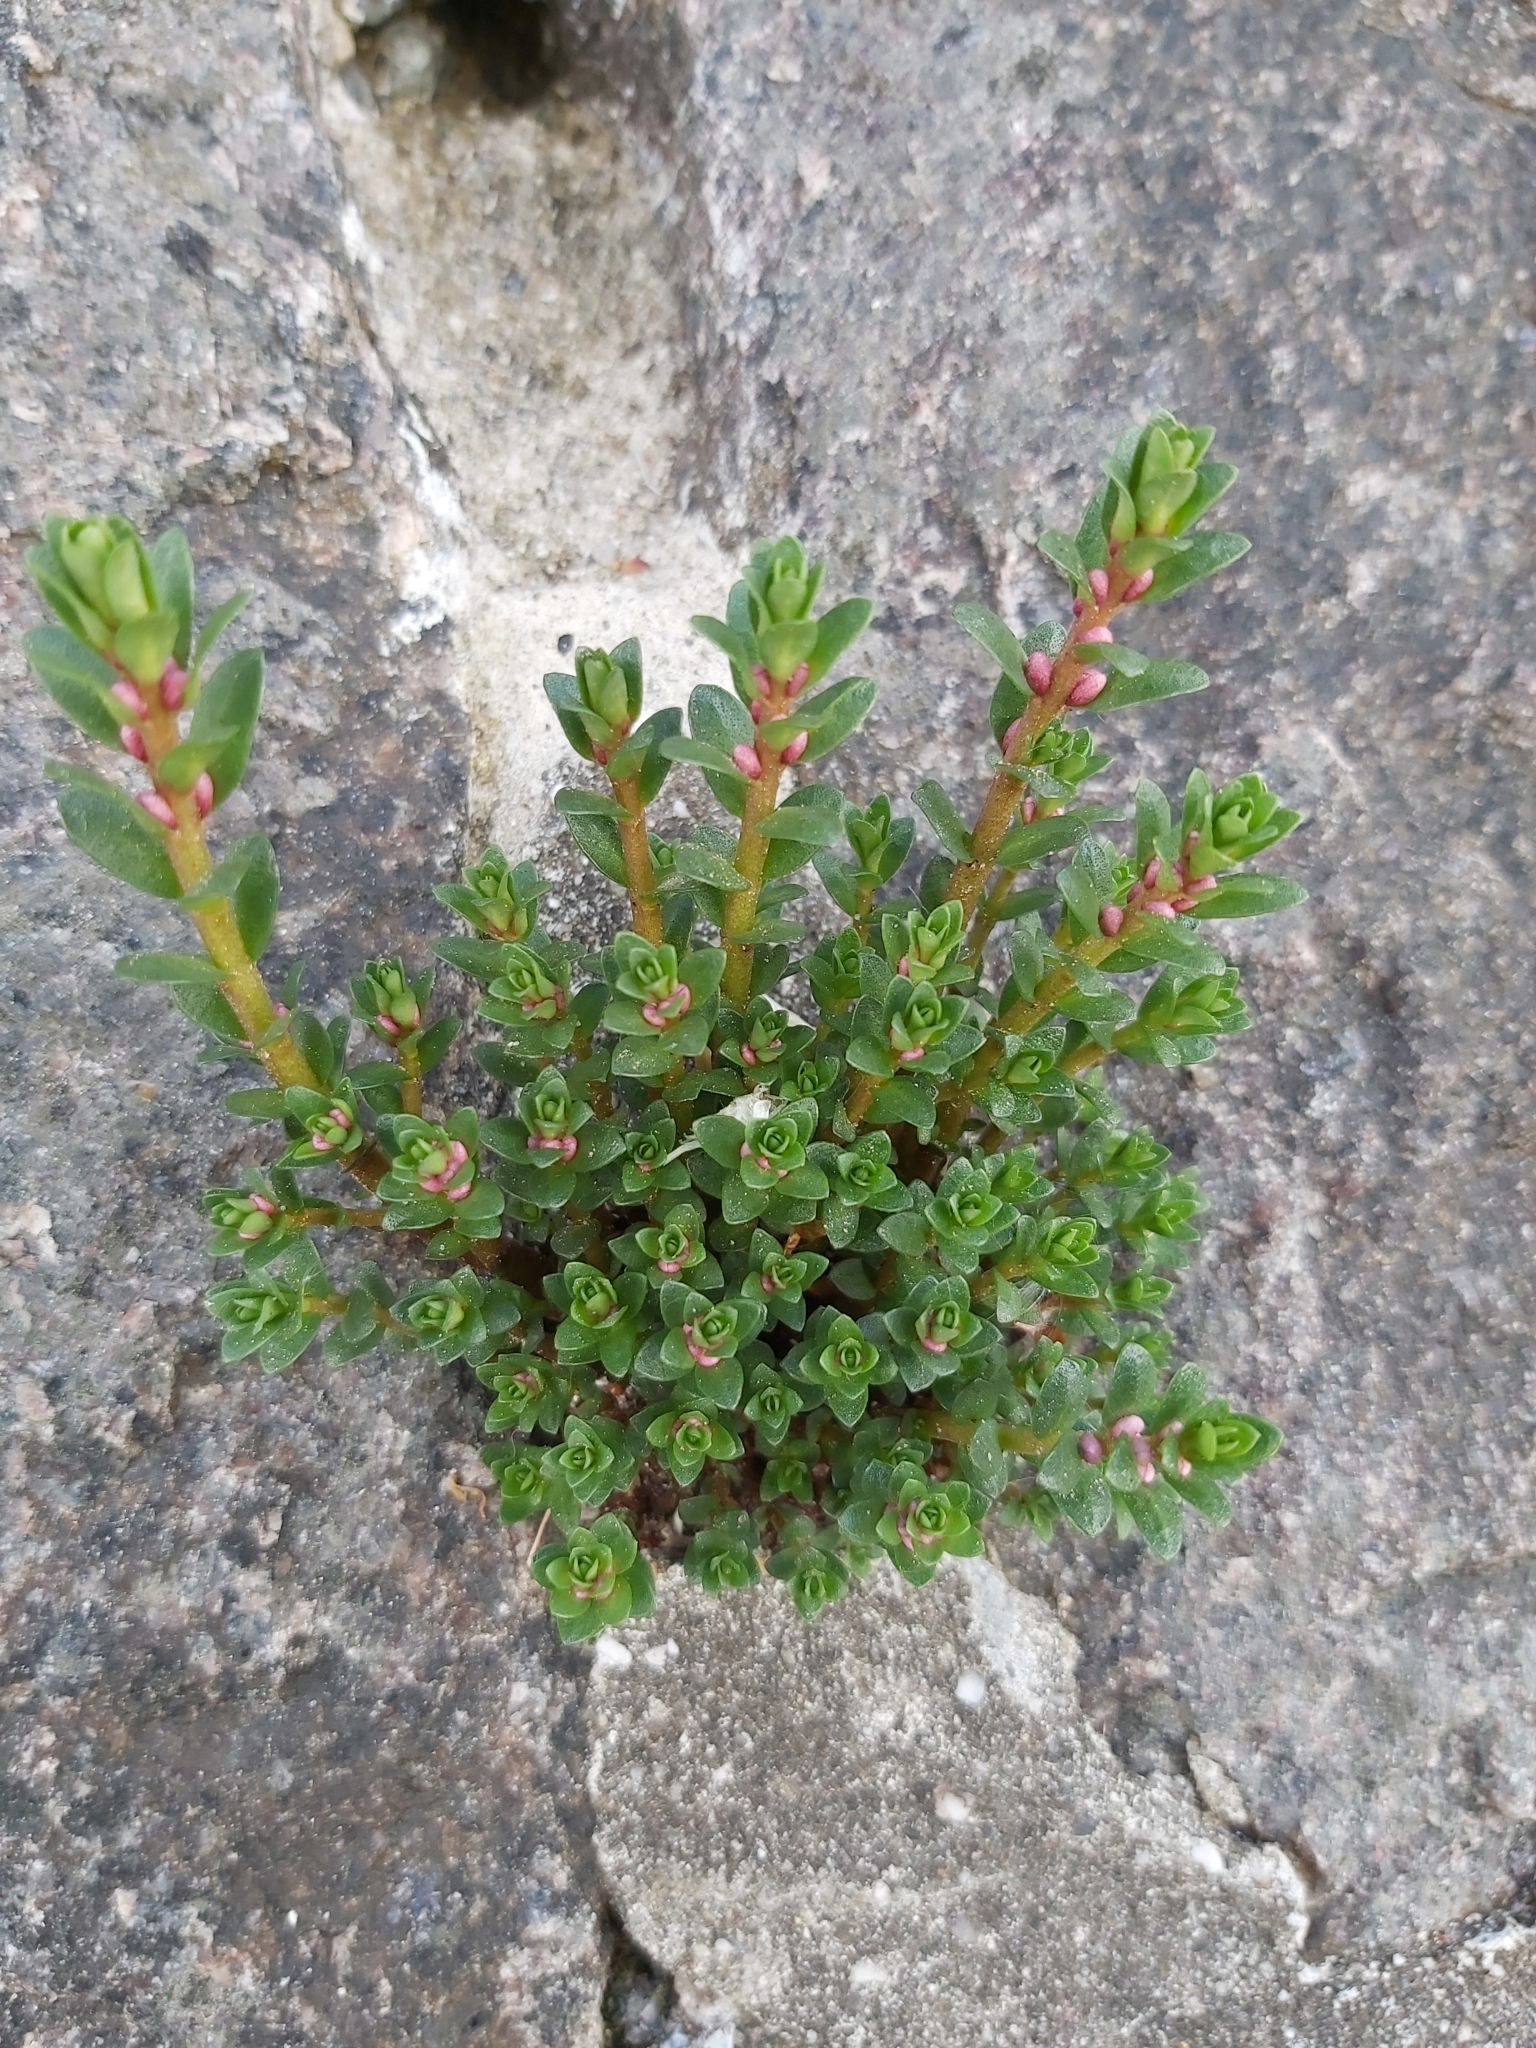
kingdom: Plantae
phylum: Tracheophyta
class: Magnoliopsida
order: Ericales
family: Primulaceae
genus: Lysimachia
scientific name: Lysimachia maritima
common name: Sea milkwort
